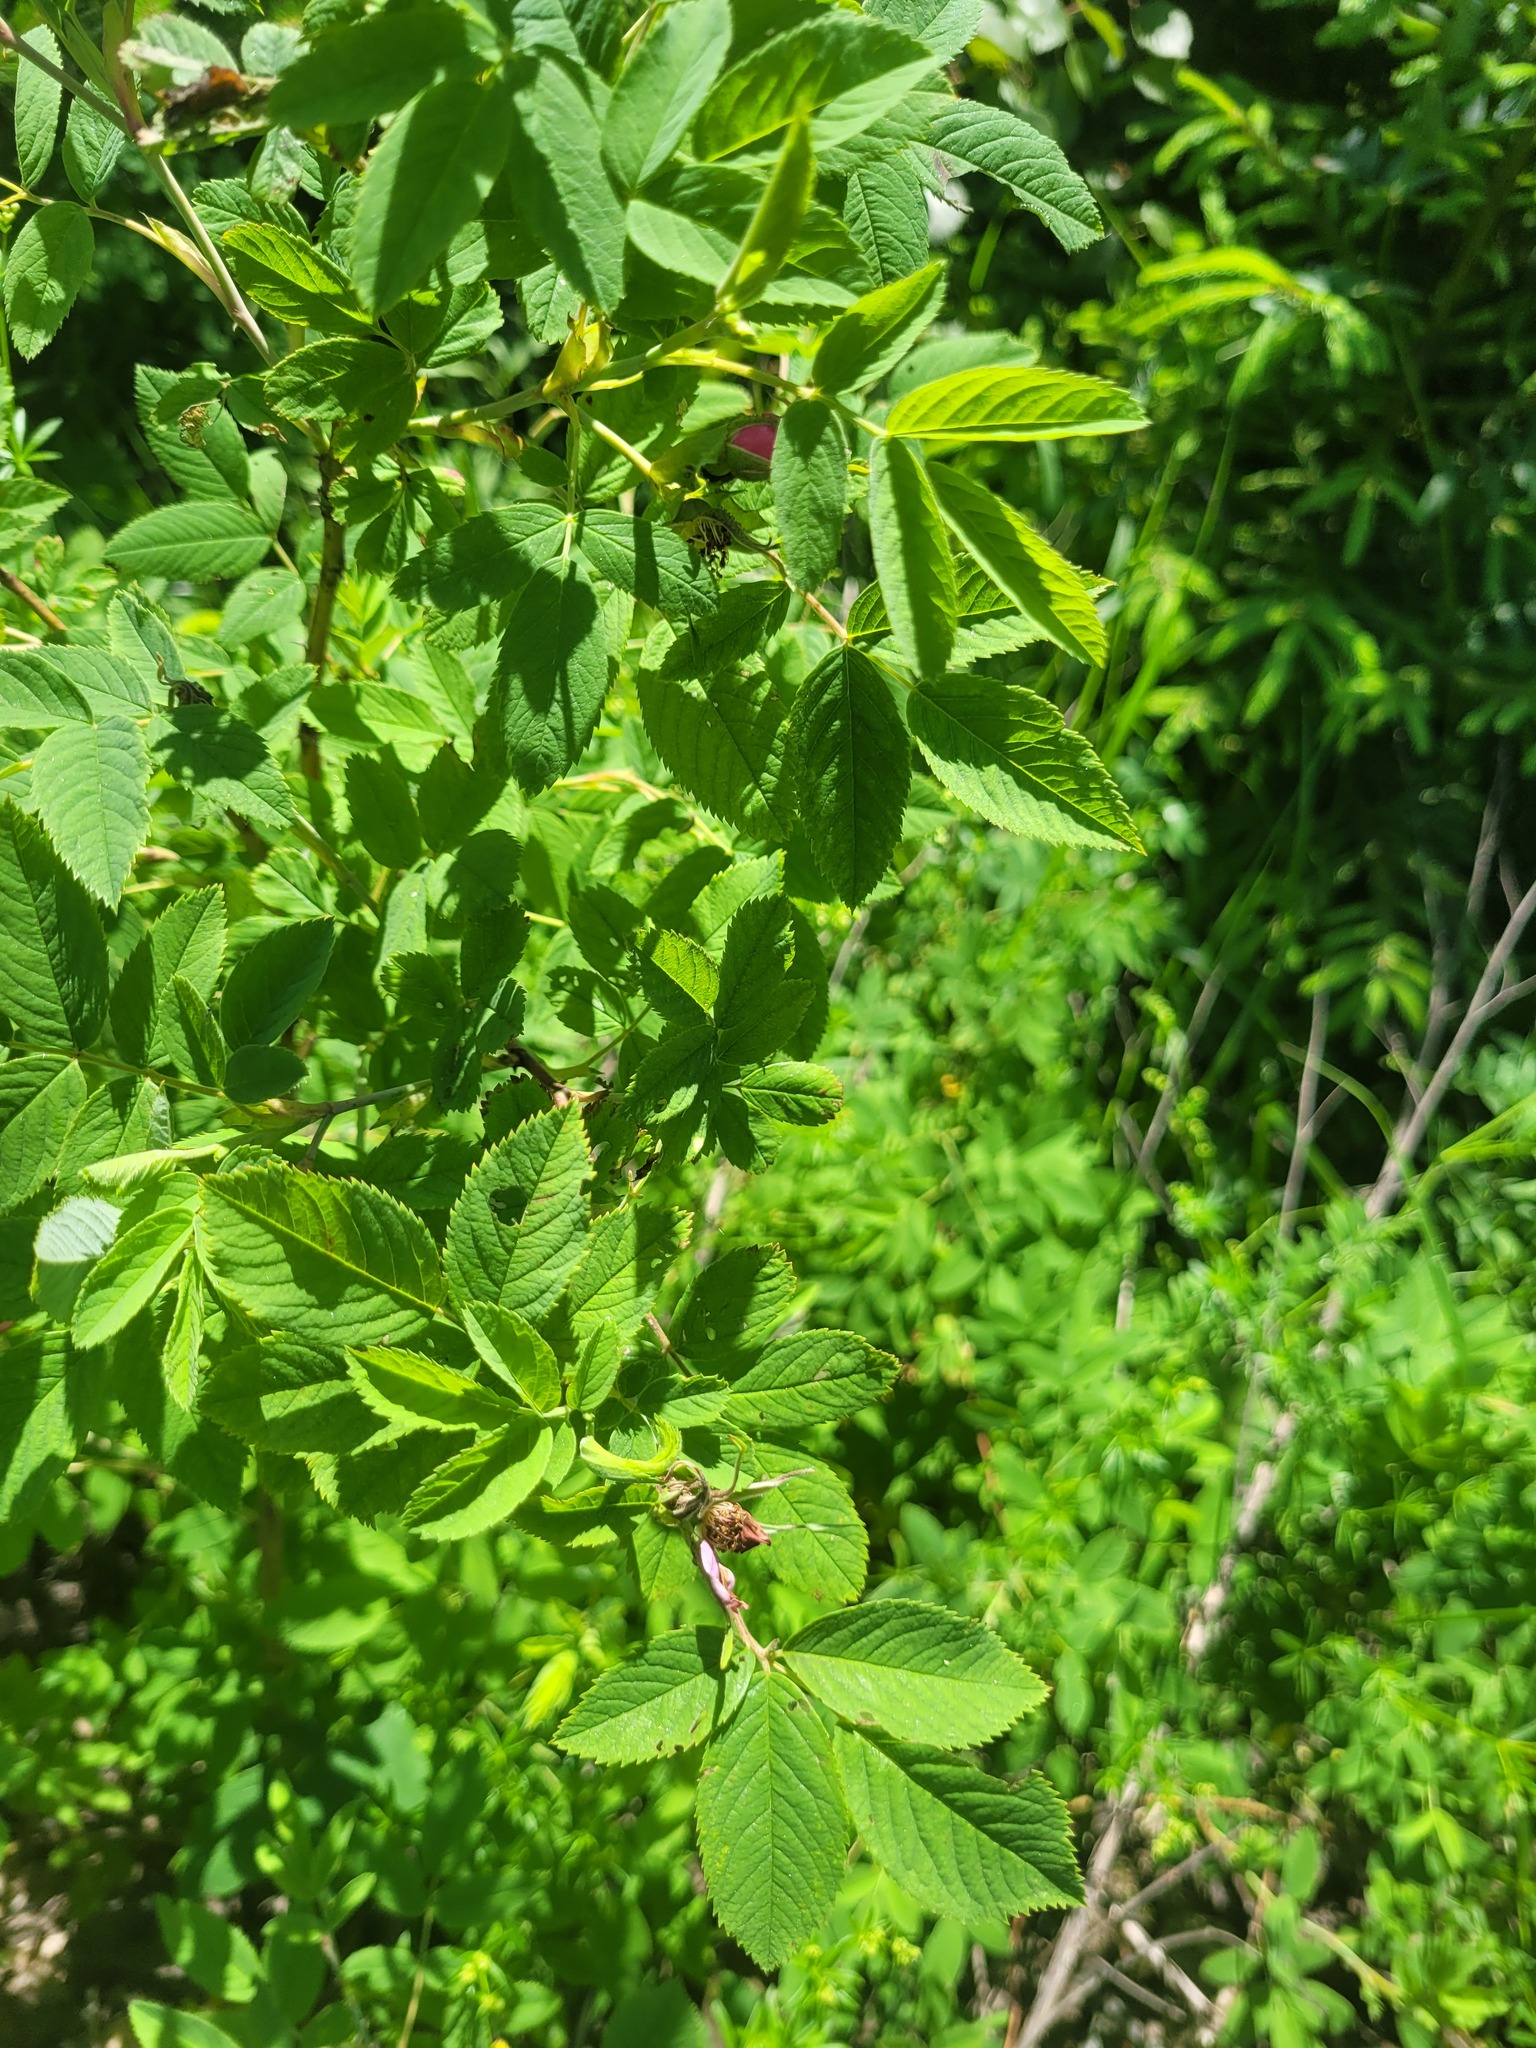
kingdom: Plantae
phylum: Tracheophyta
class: Magnoliopsida
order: Rosales
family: Rosaceae
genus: Rosa
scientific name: Rosa majalis
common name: Cinnamon rose
